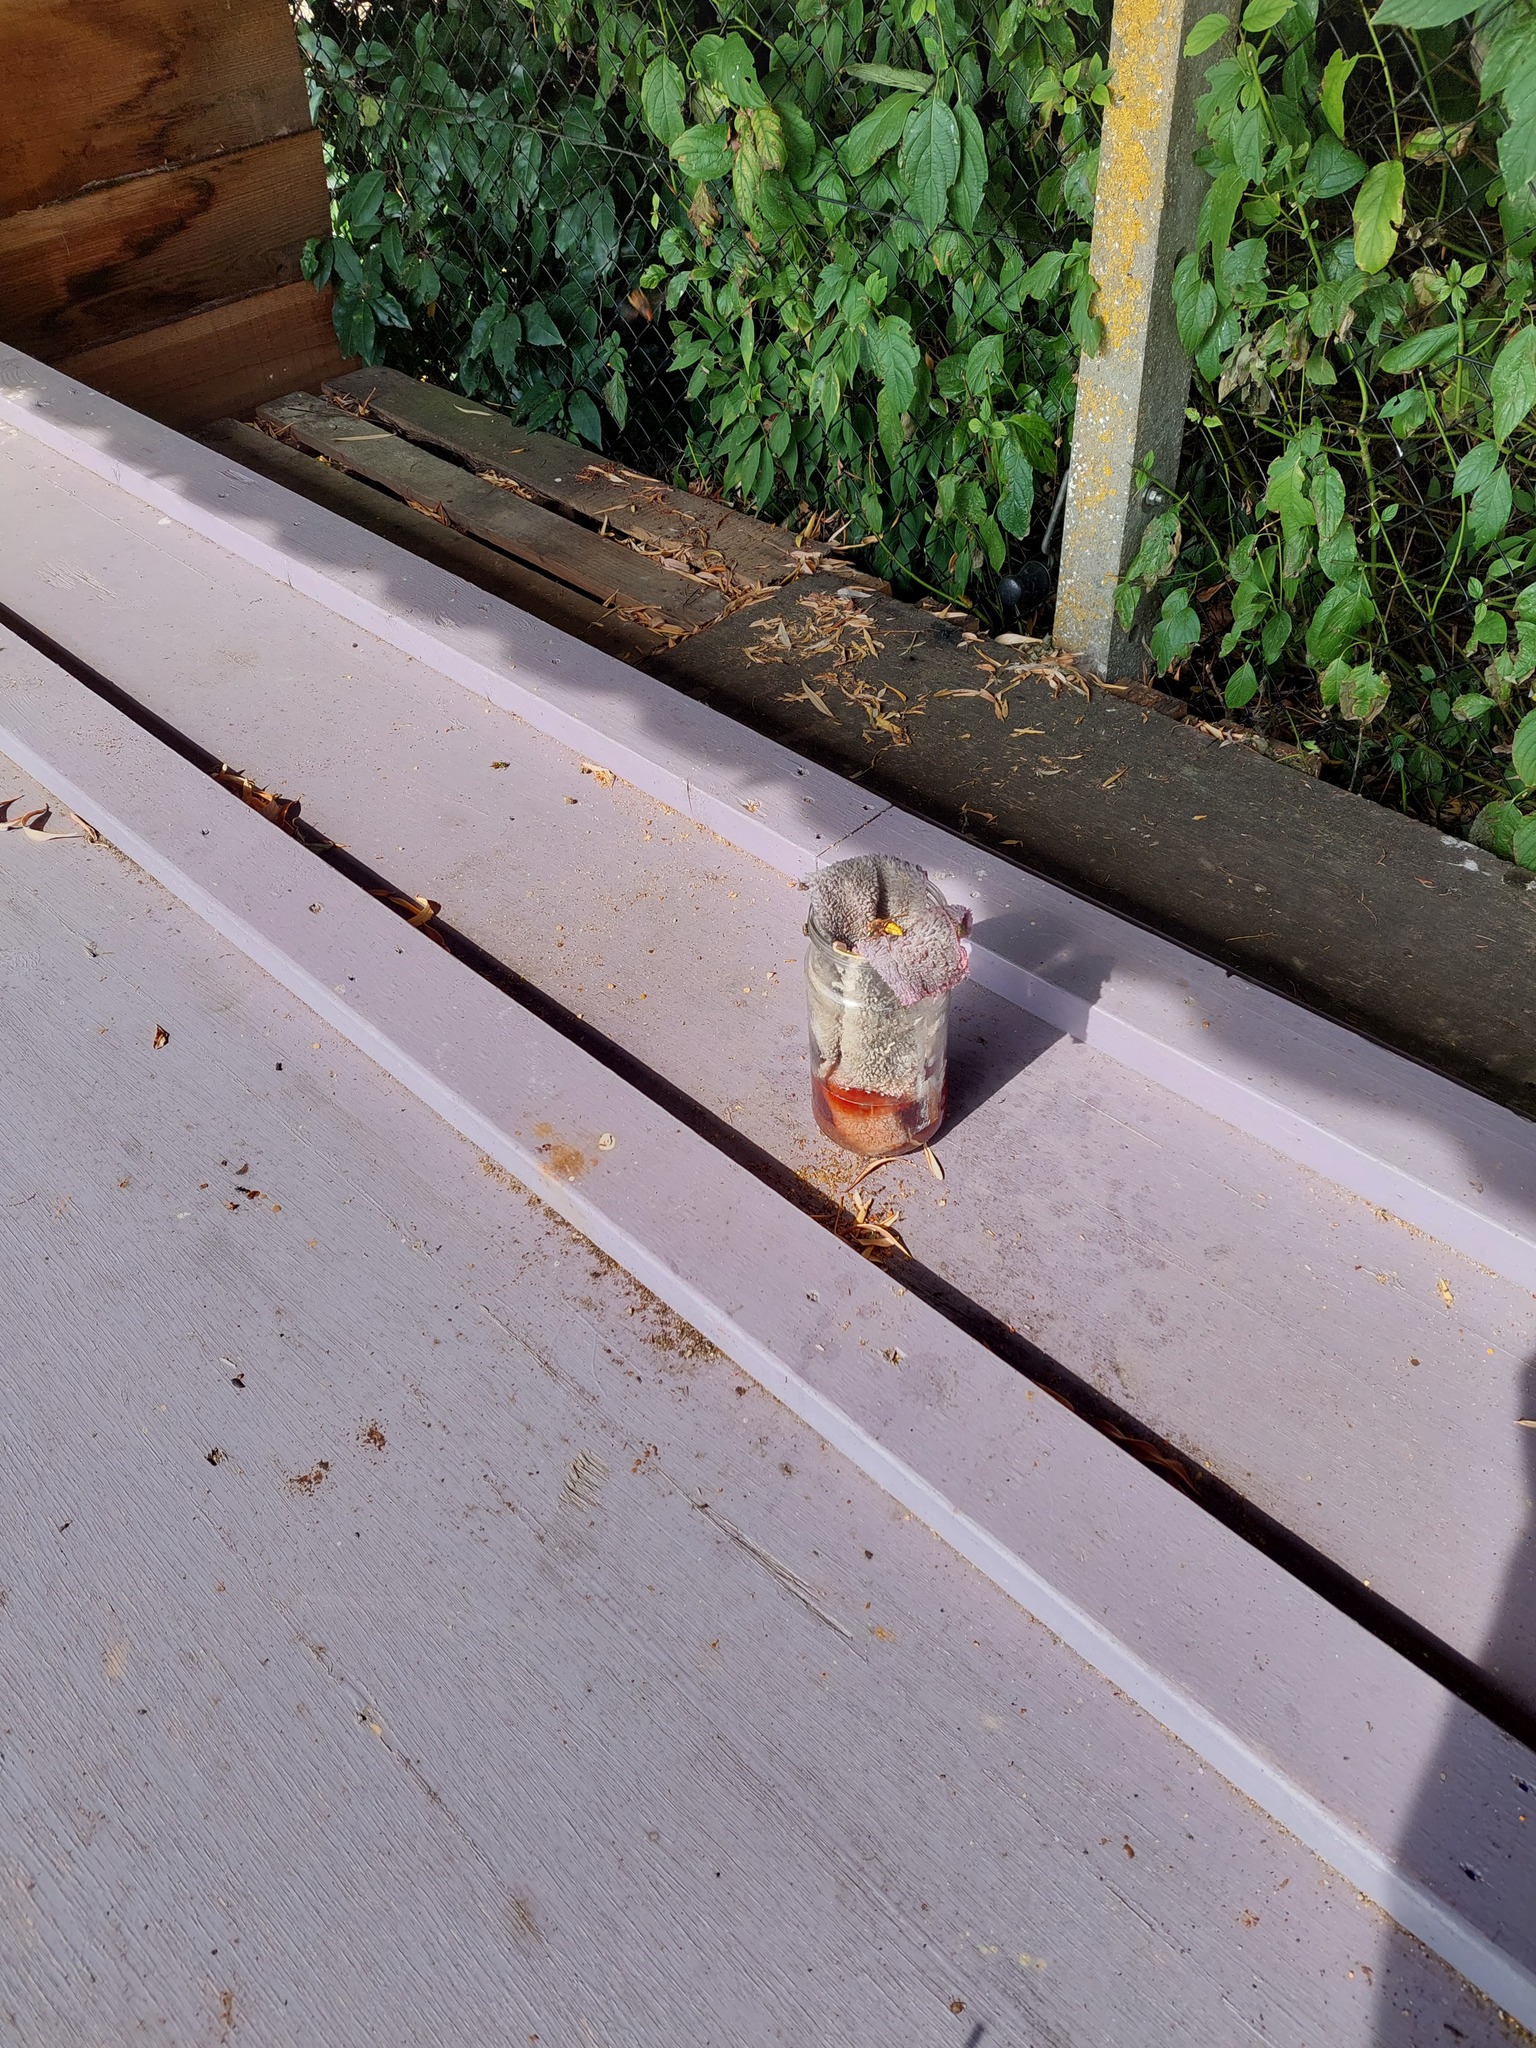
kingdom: Animalia
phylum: Arthropoda
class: Insecta
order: Hymenoptera
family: Vespidae
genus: Vespa
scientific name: Vespa crabro
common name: Hornet
